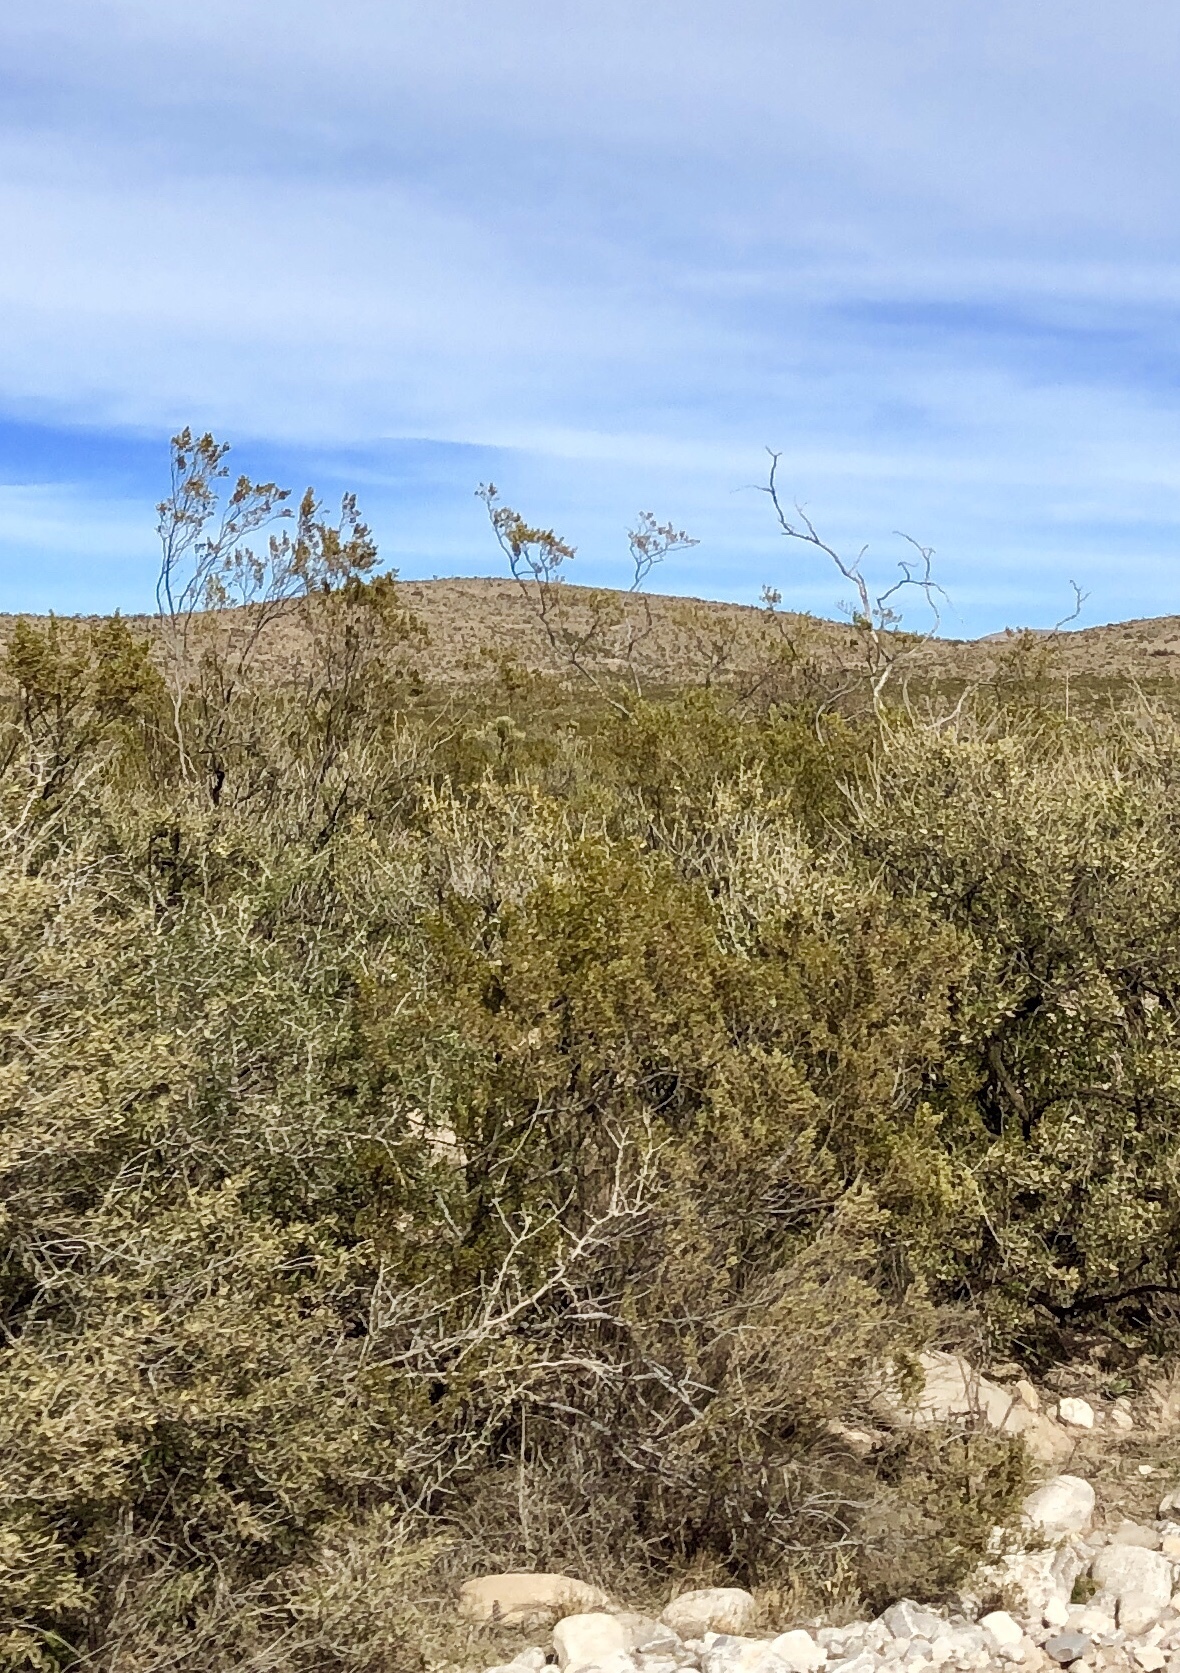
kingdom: Plantae
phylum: Tracheophyta
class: Magnoliopsida
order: Zygophyllales
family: Zygophyllaceae
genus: Larrea
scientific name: Larrea tridentata
